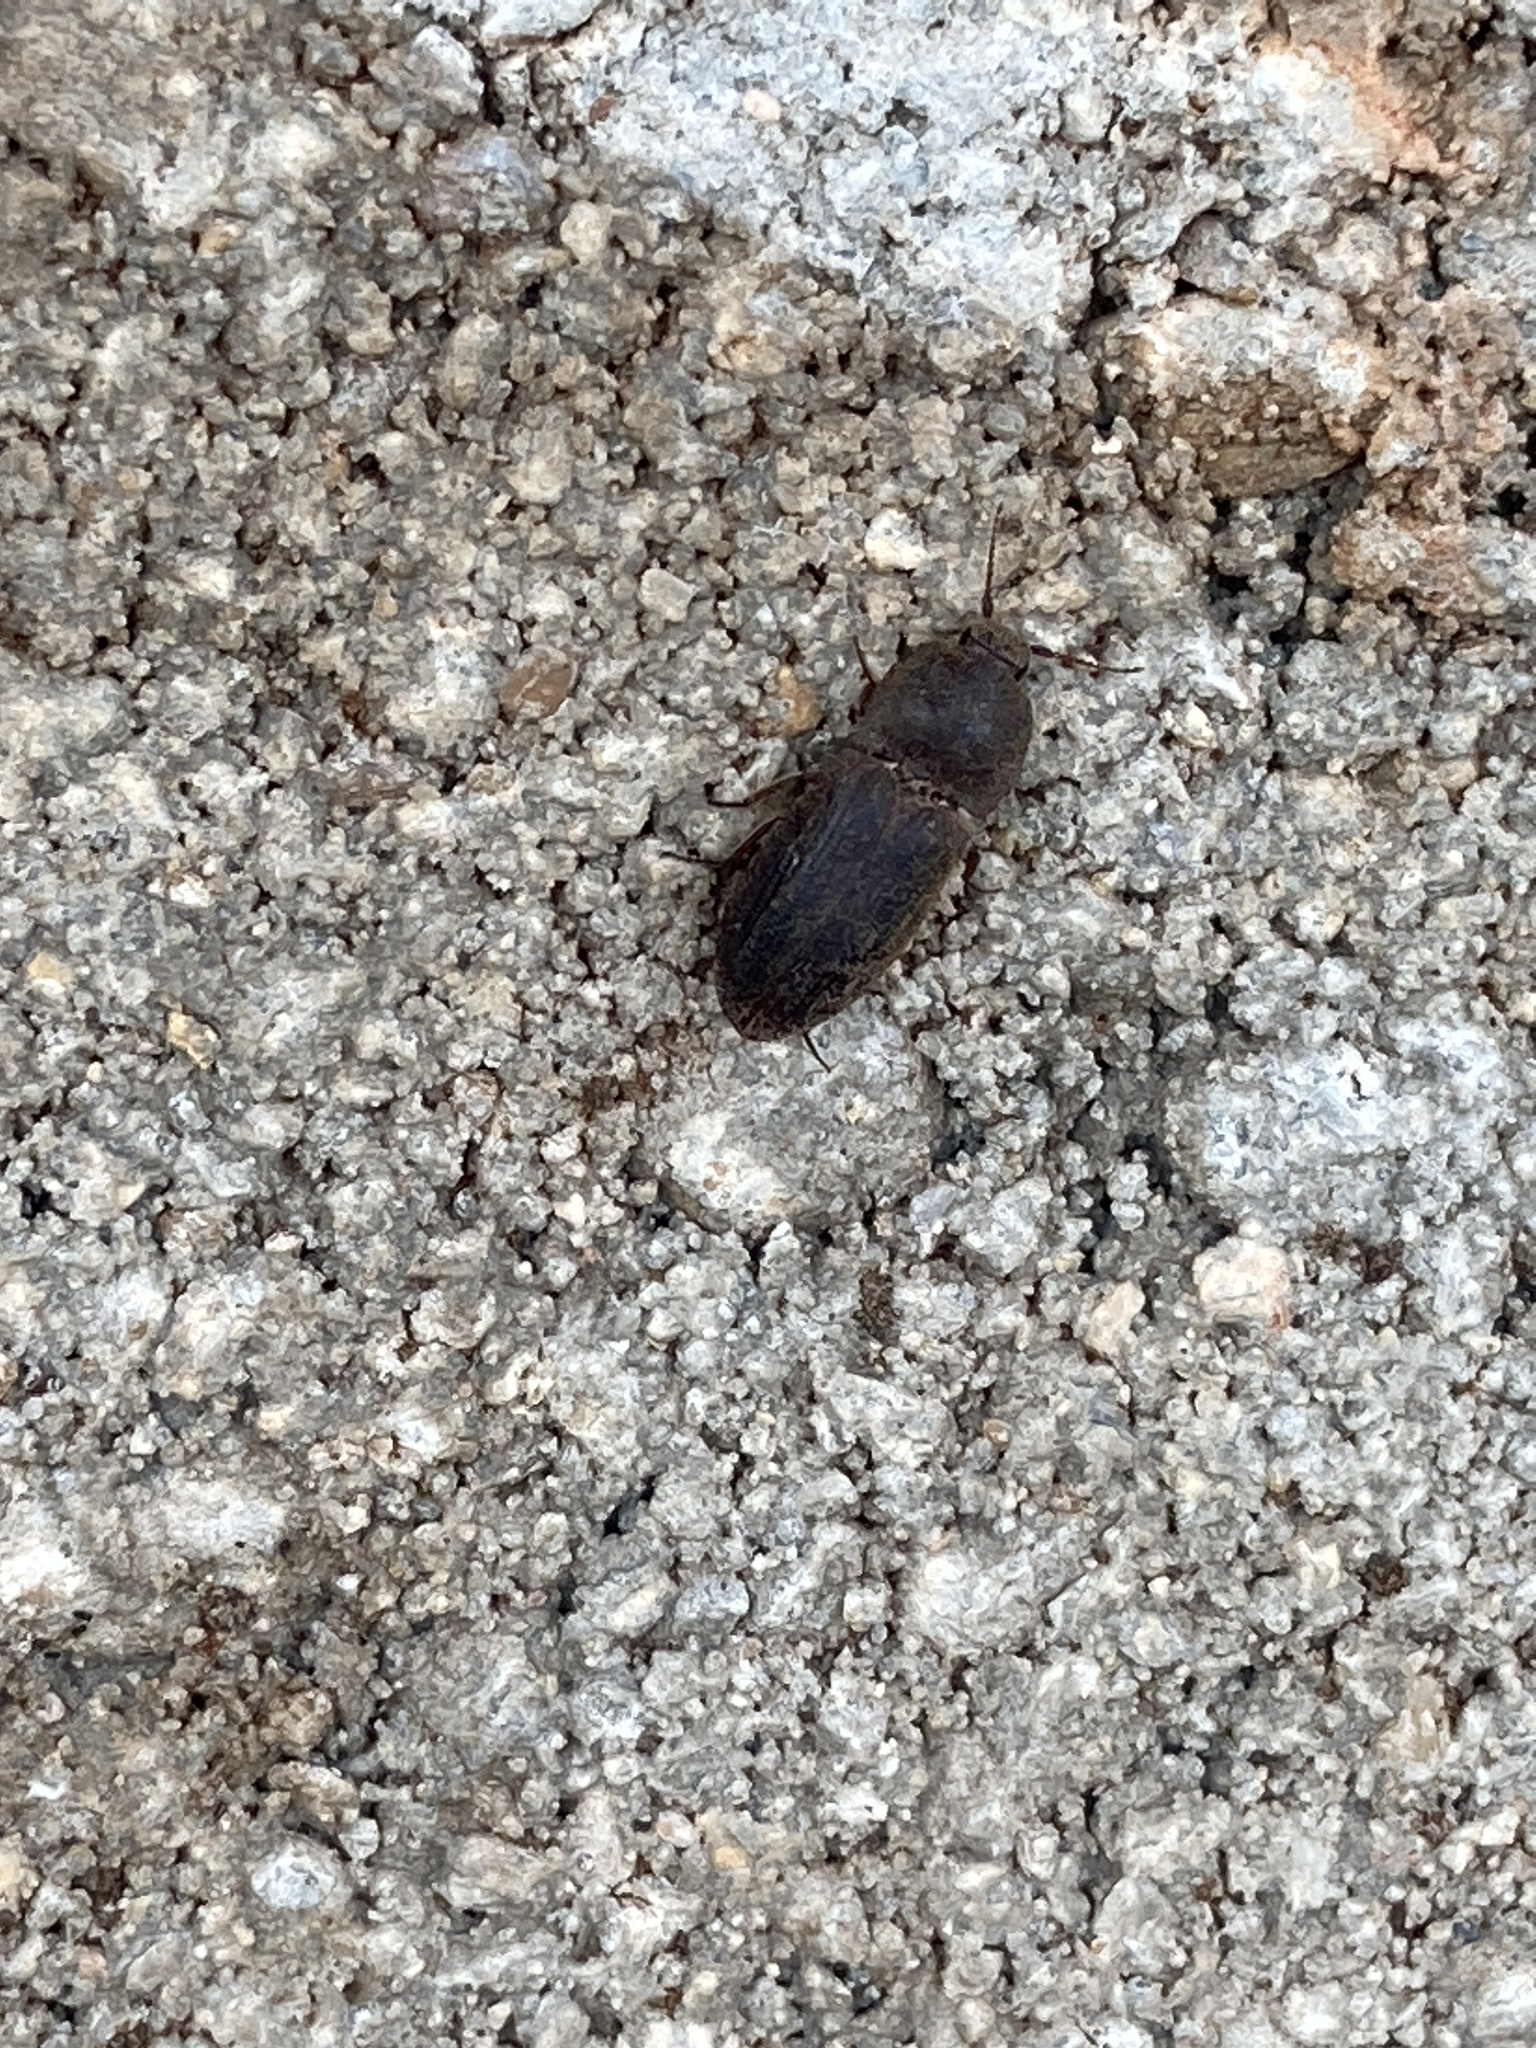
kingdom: Animalia
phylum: Arthropoda
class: Insecta
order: Coleoptera
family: Elateridae
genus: Agrypnus
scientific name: Agrypnus rectangularis
